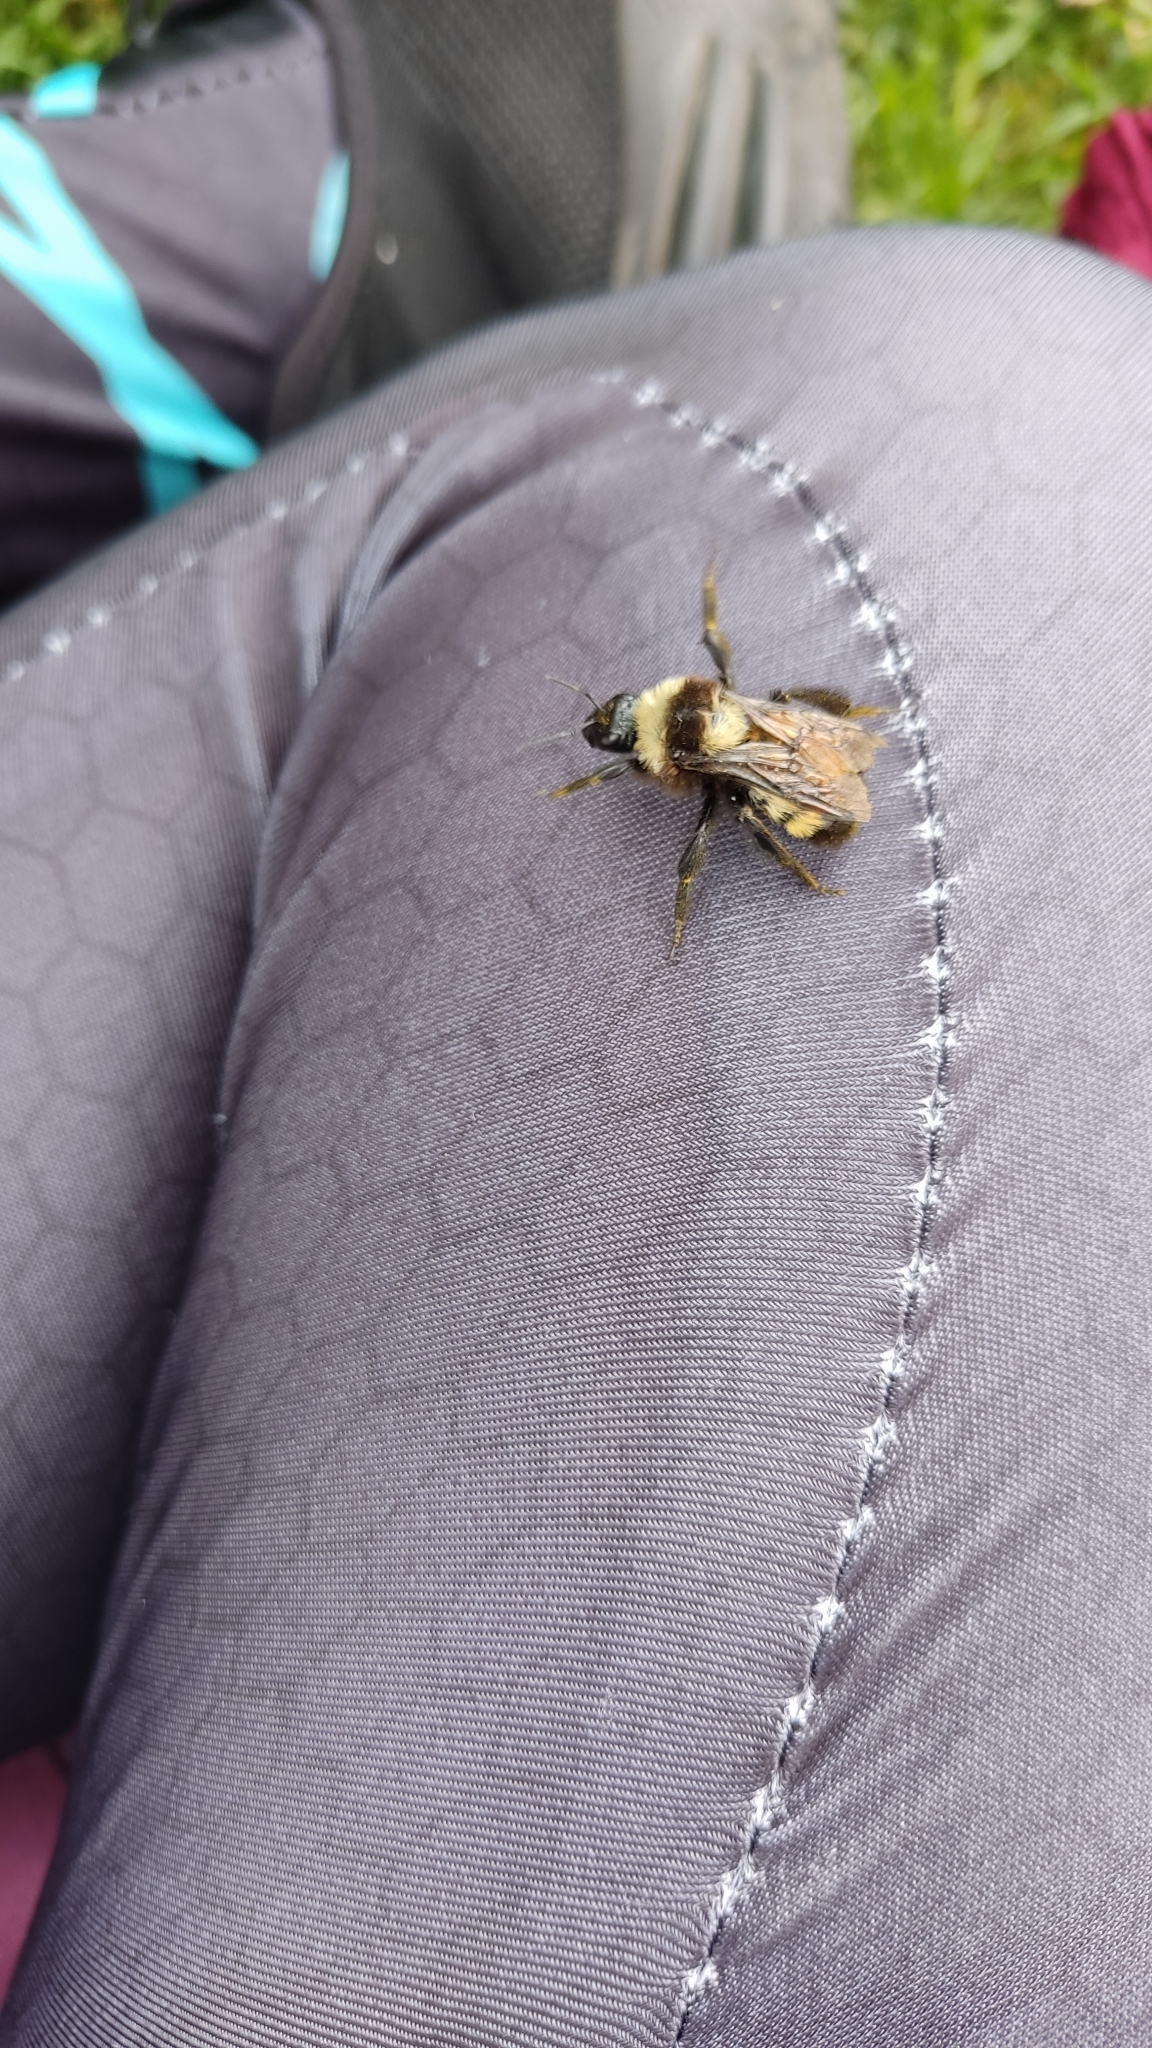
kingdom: Animalia
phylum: Arthropoda
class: Insecta
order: Hymenoptera
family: Apidae
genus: Bombus
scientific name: Bombus sonorus
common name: Sonoran bumble bee
